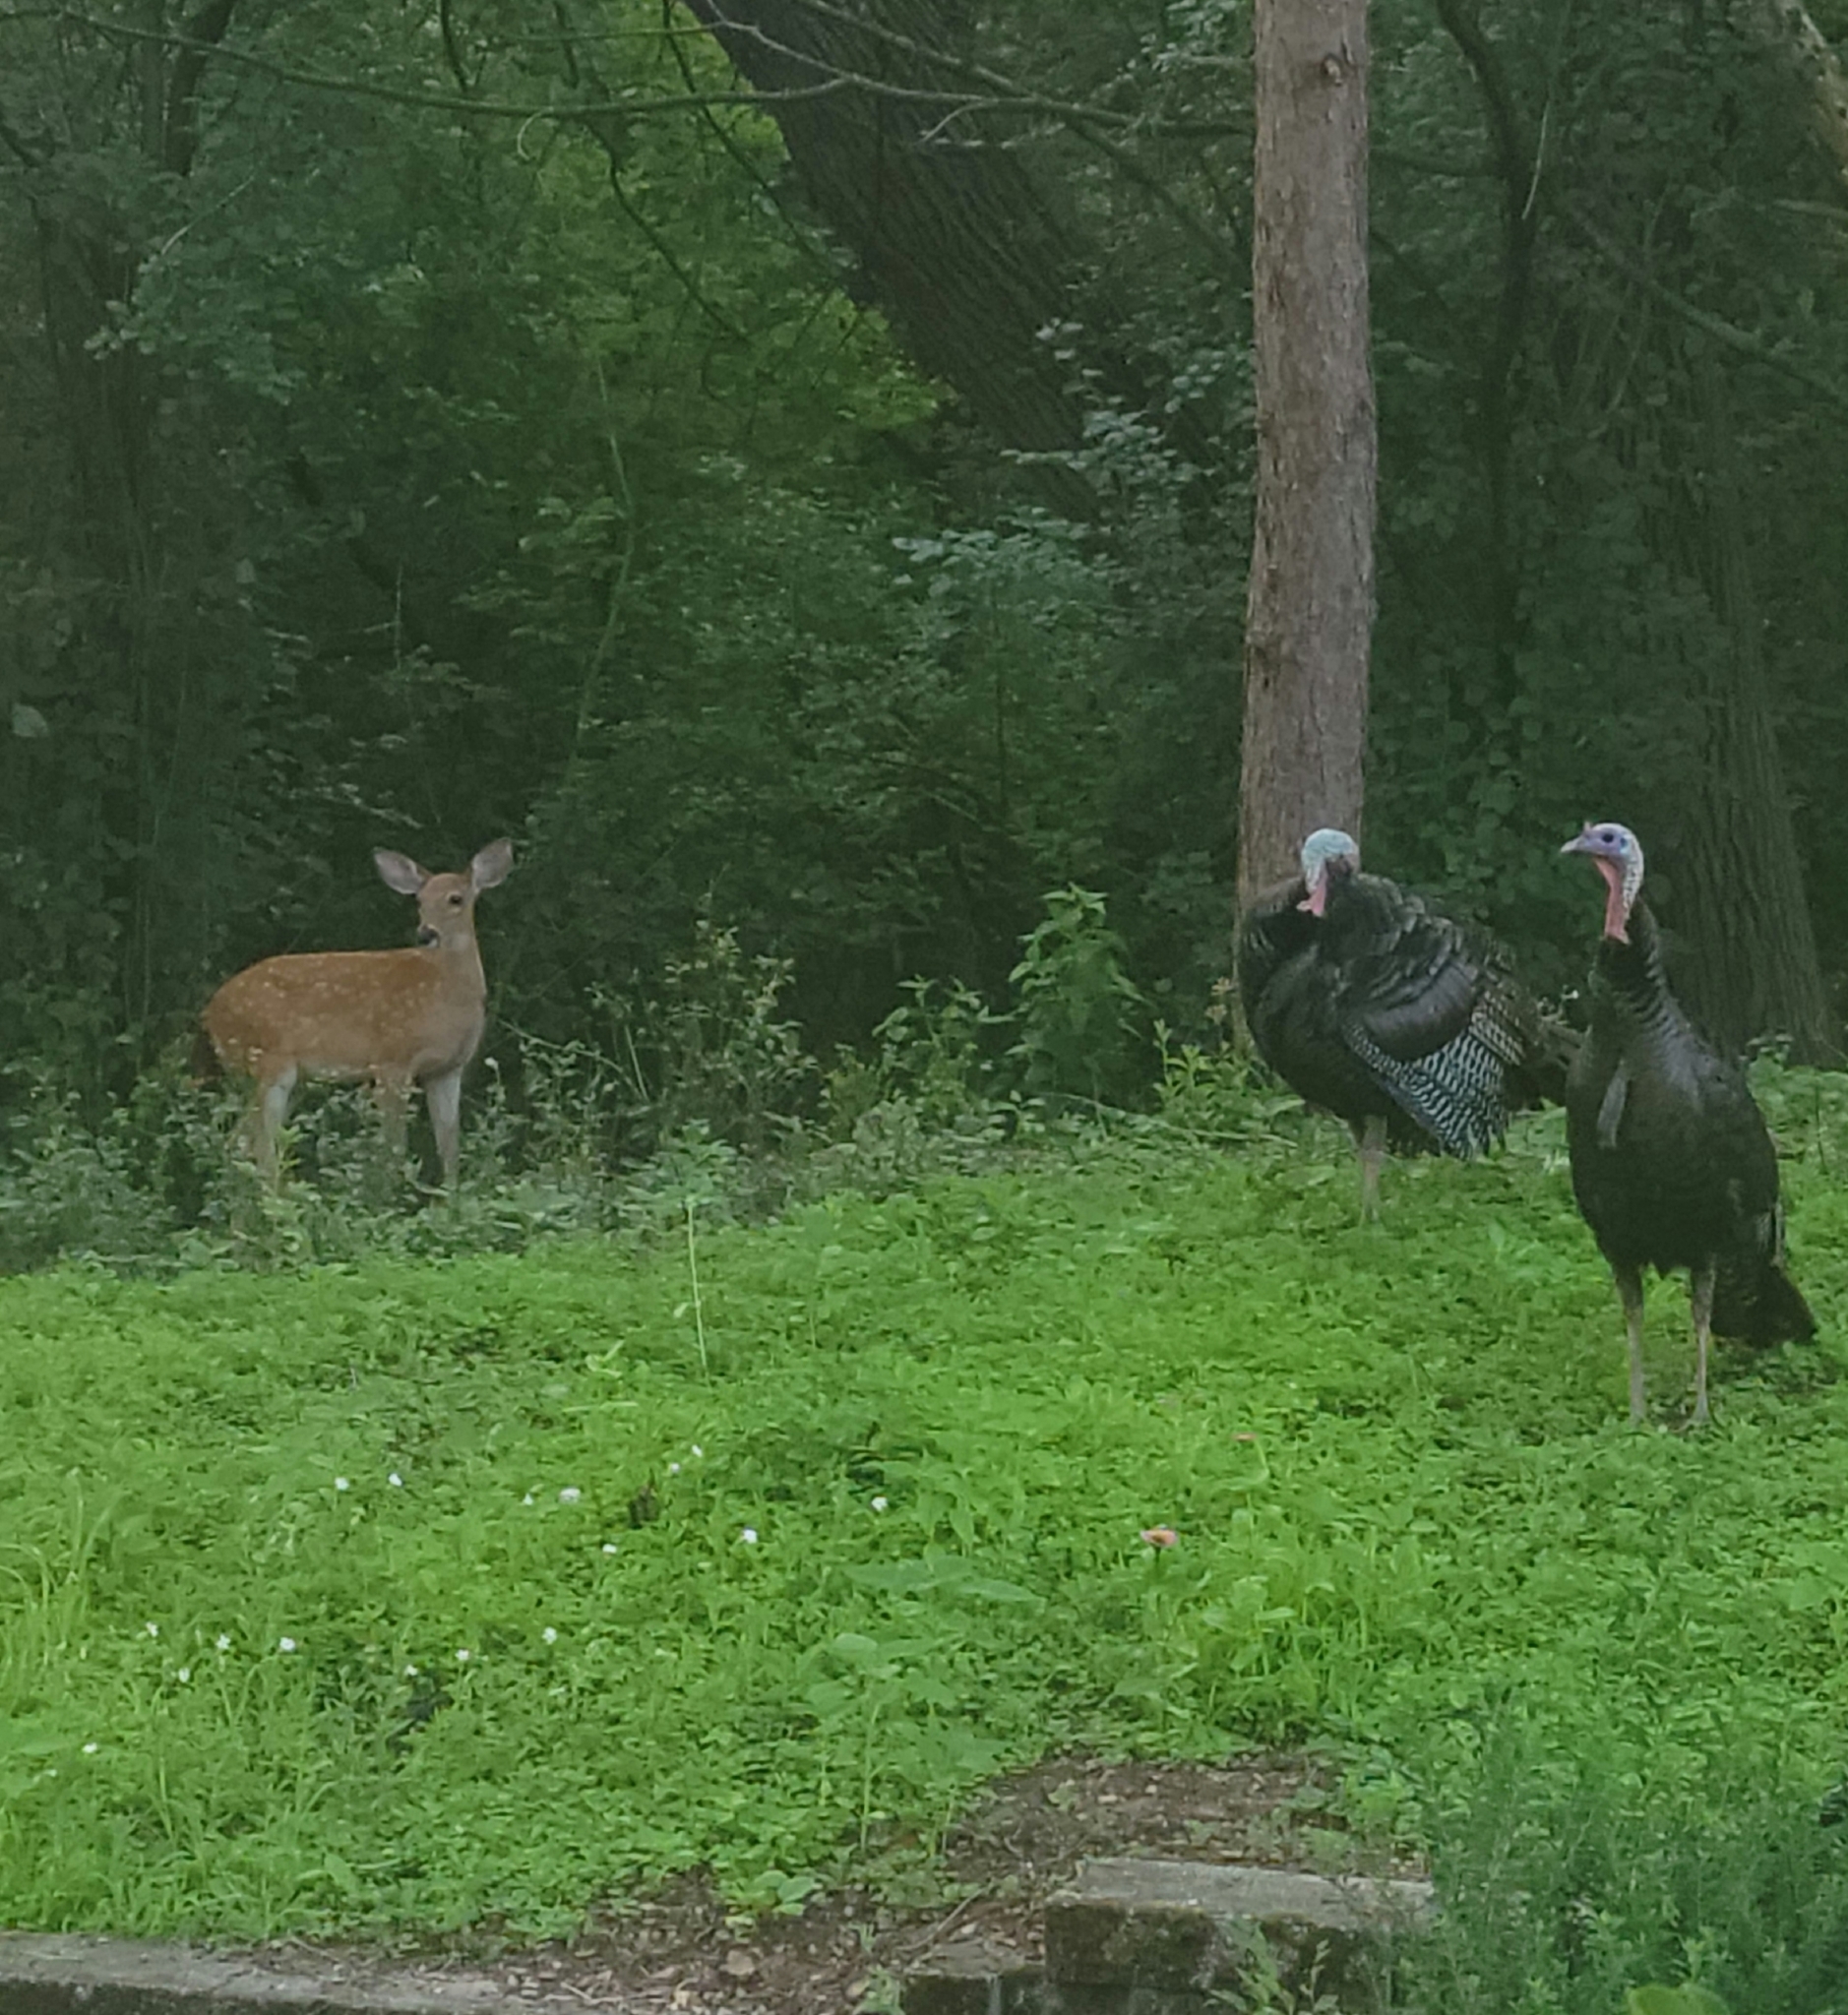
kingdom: Animalia
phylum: Chordata
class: Aves
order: Galliformes
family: Phasianidae
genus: Meleagris
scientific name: Meleagris gallopavo
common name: Wild turkey
